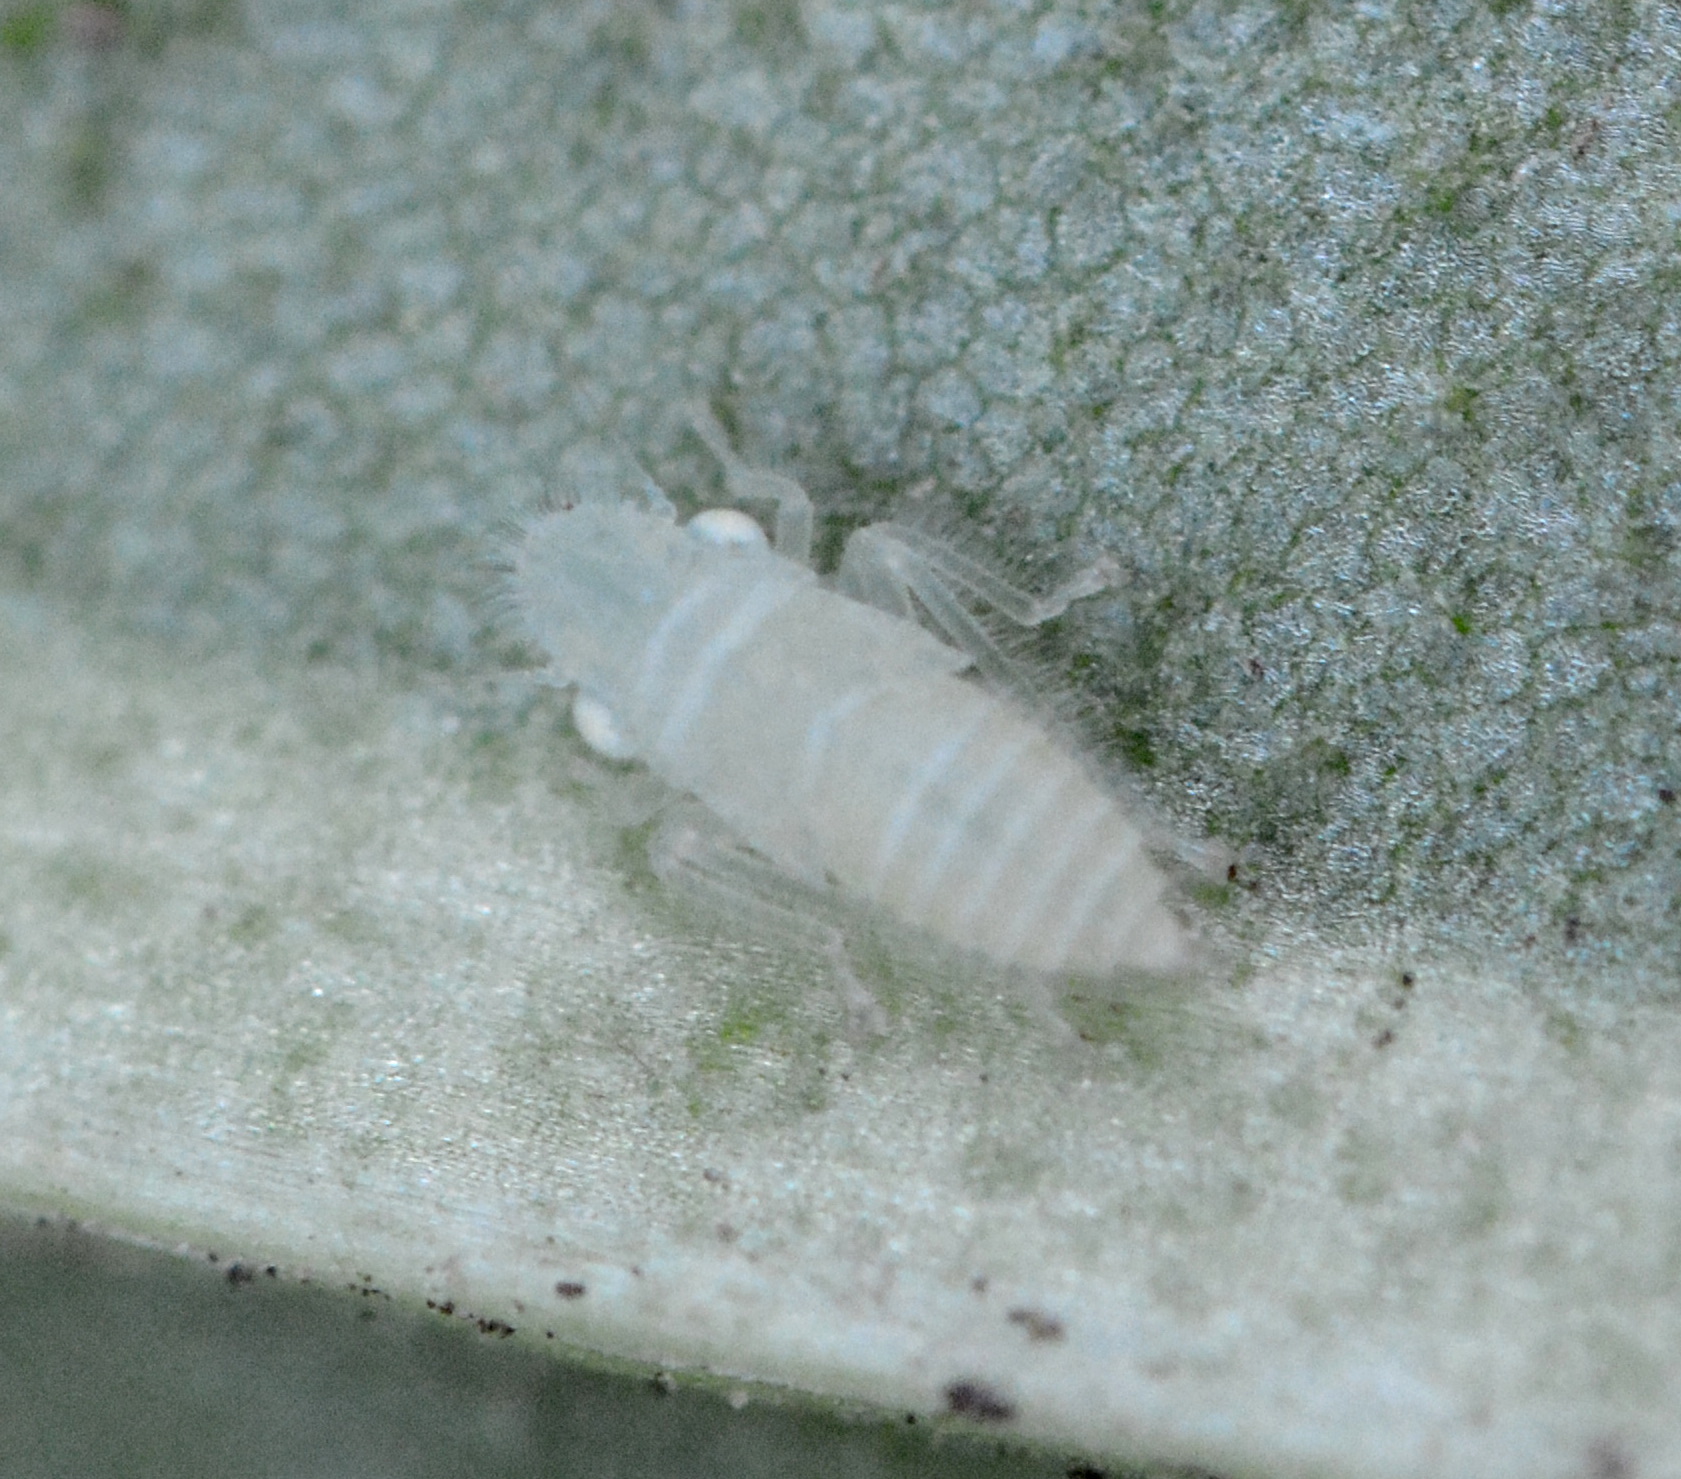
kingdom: Animalia
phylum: Arthropoda
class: Insecta
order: Hemiptera
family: Cicadellidae
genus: Paraulacizes
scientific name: Paraulacizes irrorata
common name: Speckled sharpshooter
